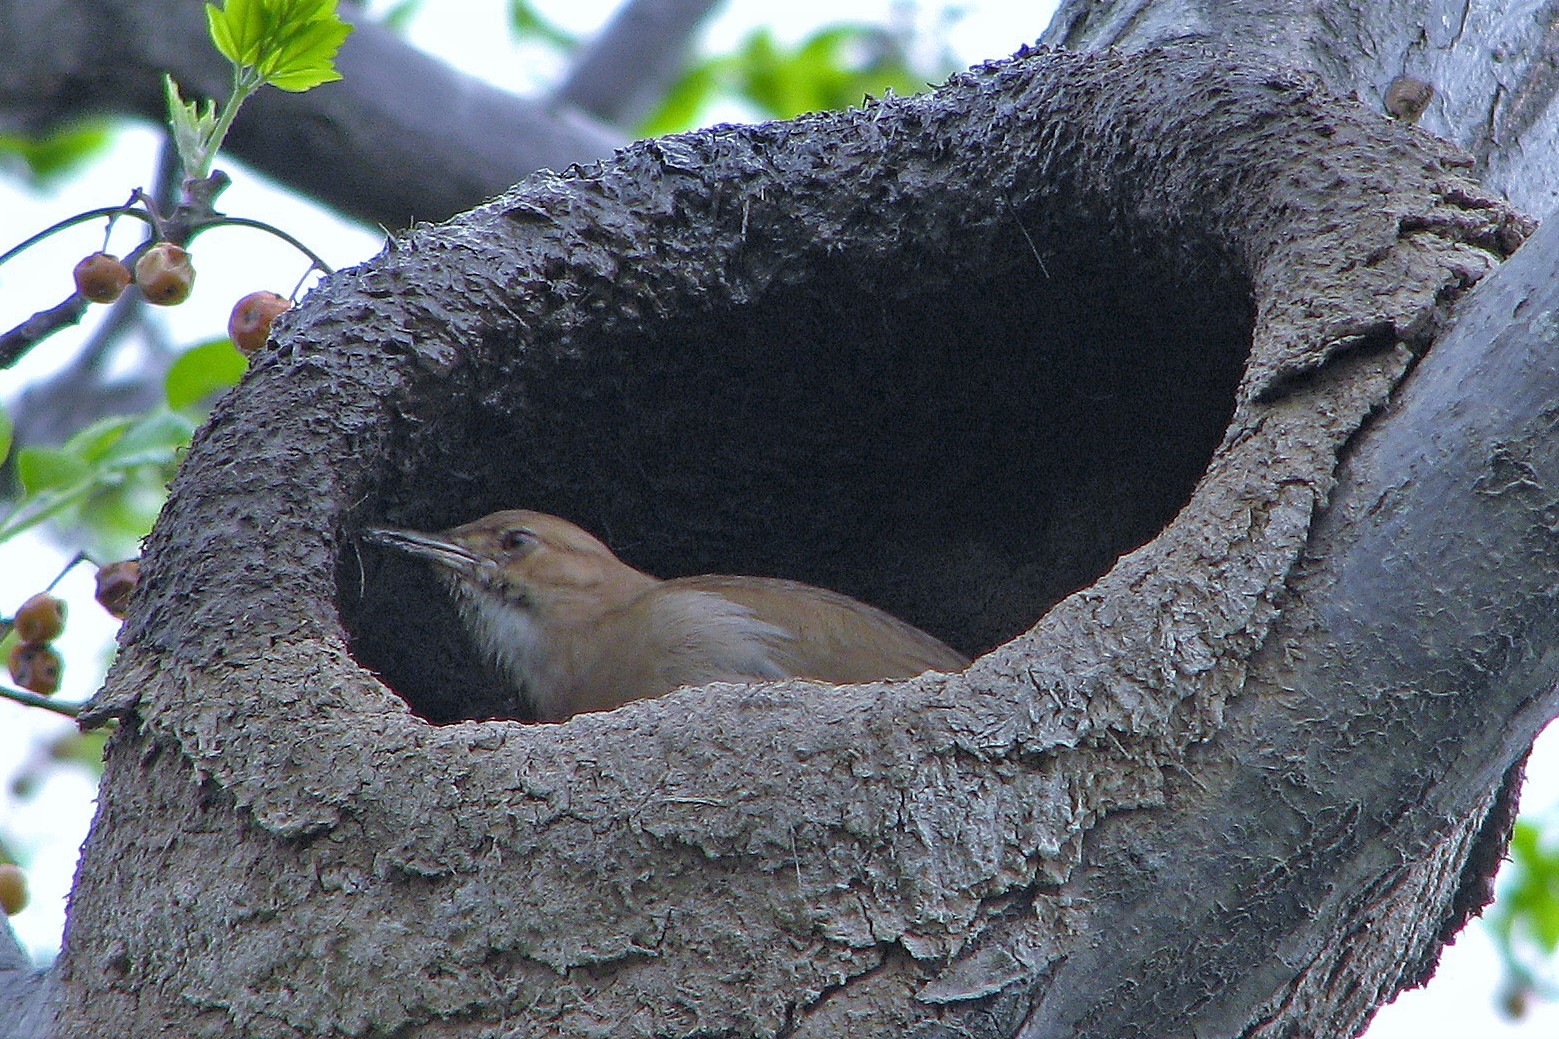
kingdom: Animalia
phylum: Chordata
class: Aves
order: Passeriformes
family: Furnariidae
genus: Furnarius
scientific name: Furnarius rufus
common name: Rufous hornero
